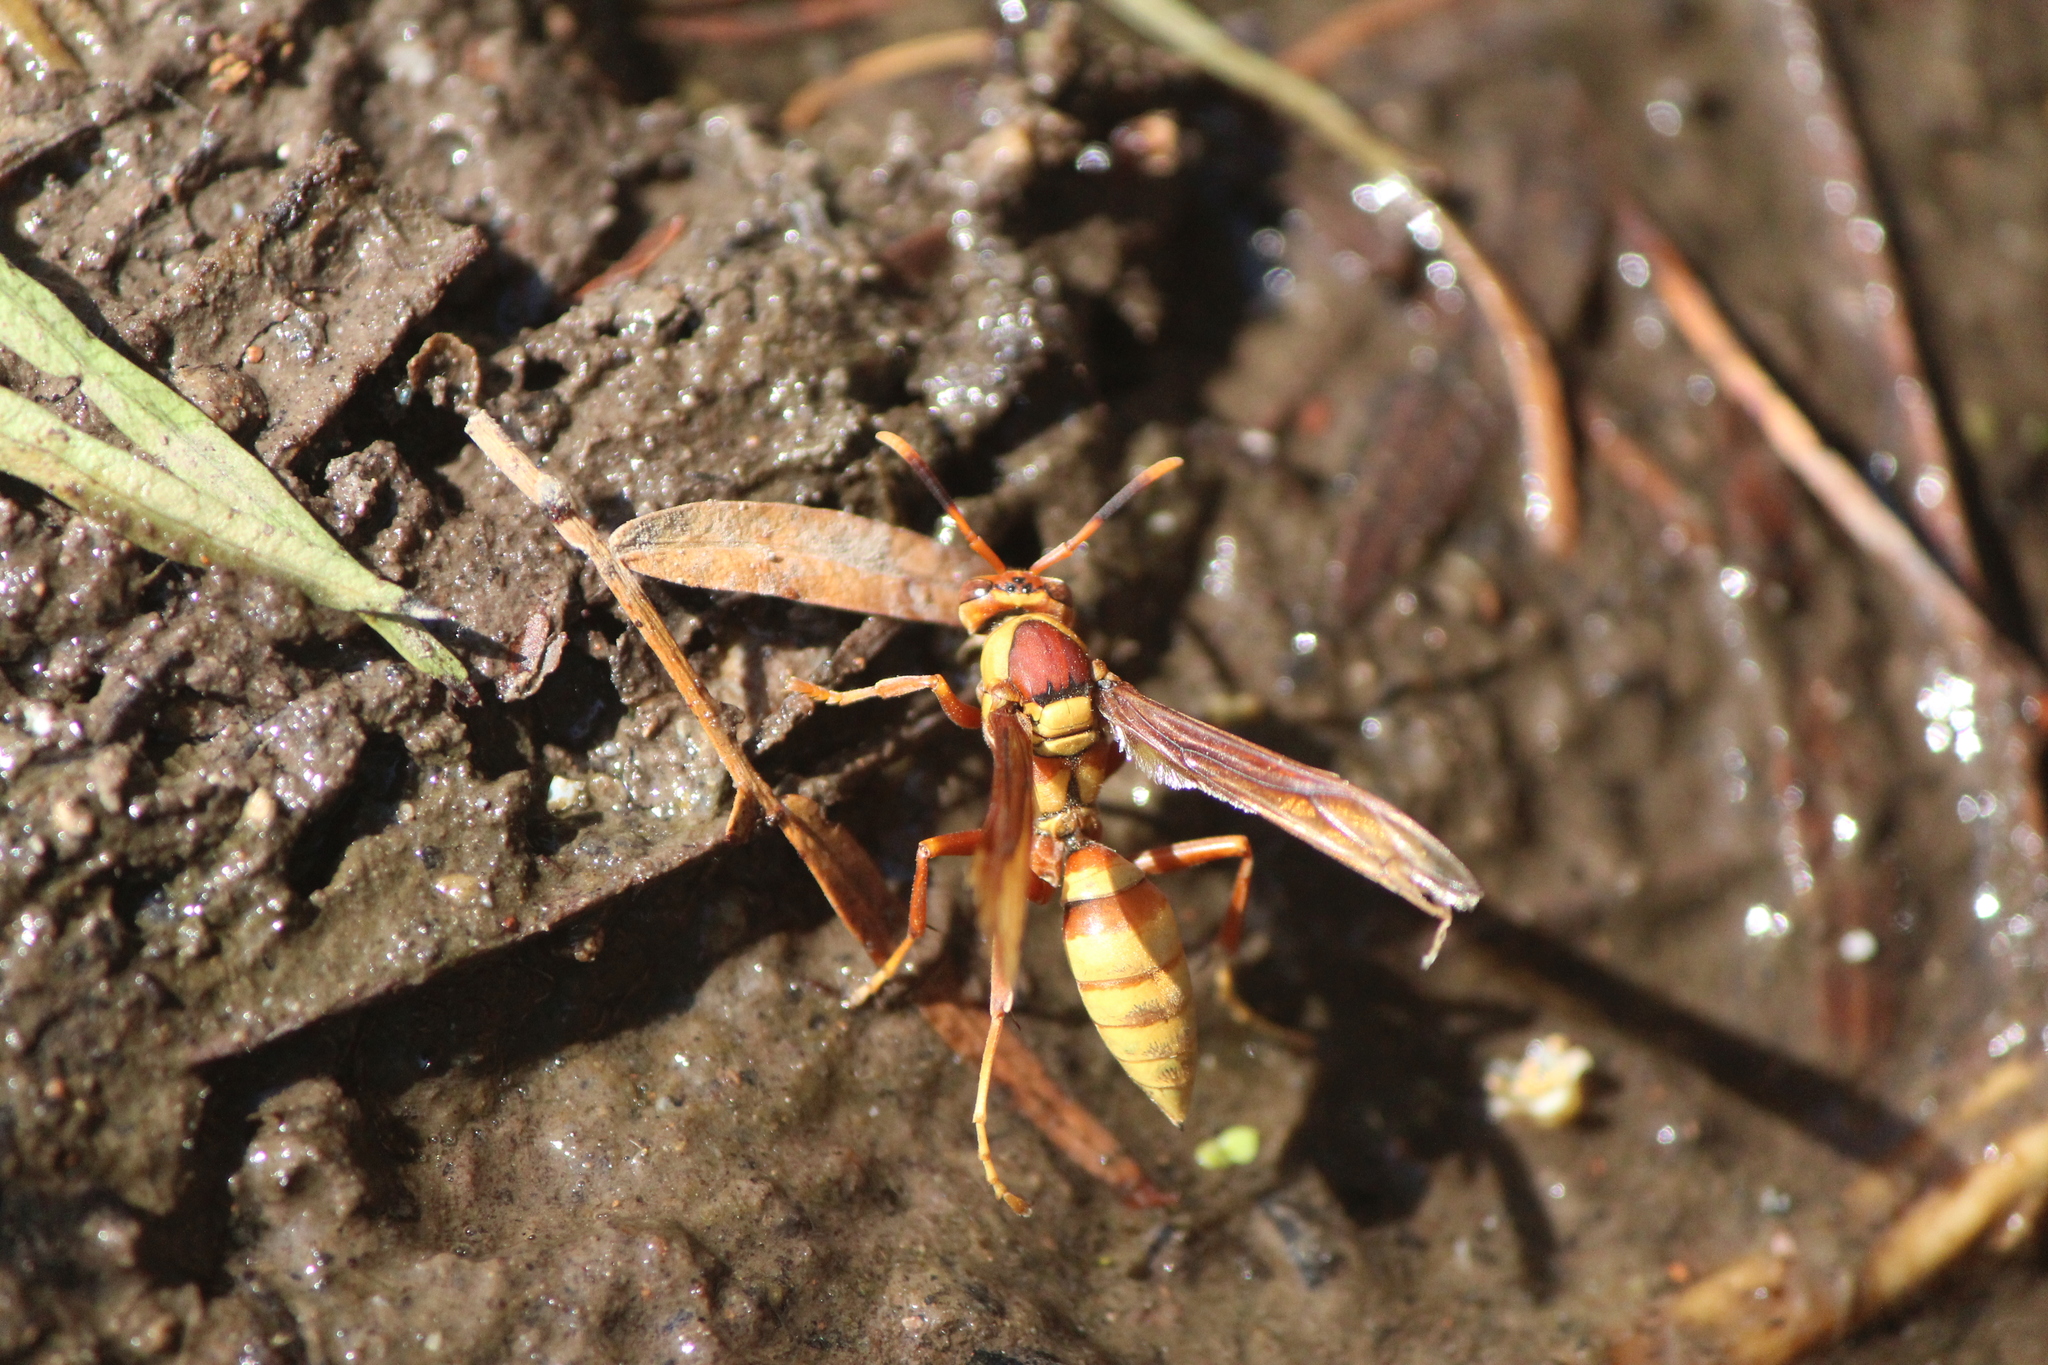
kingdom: Animalia
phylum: Arthropoda
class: Insecta
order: Hymenoptera
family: Eumenidae
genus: Polistes
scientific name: Polistes major
